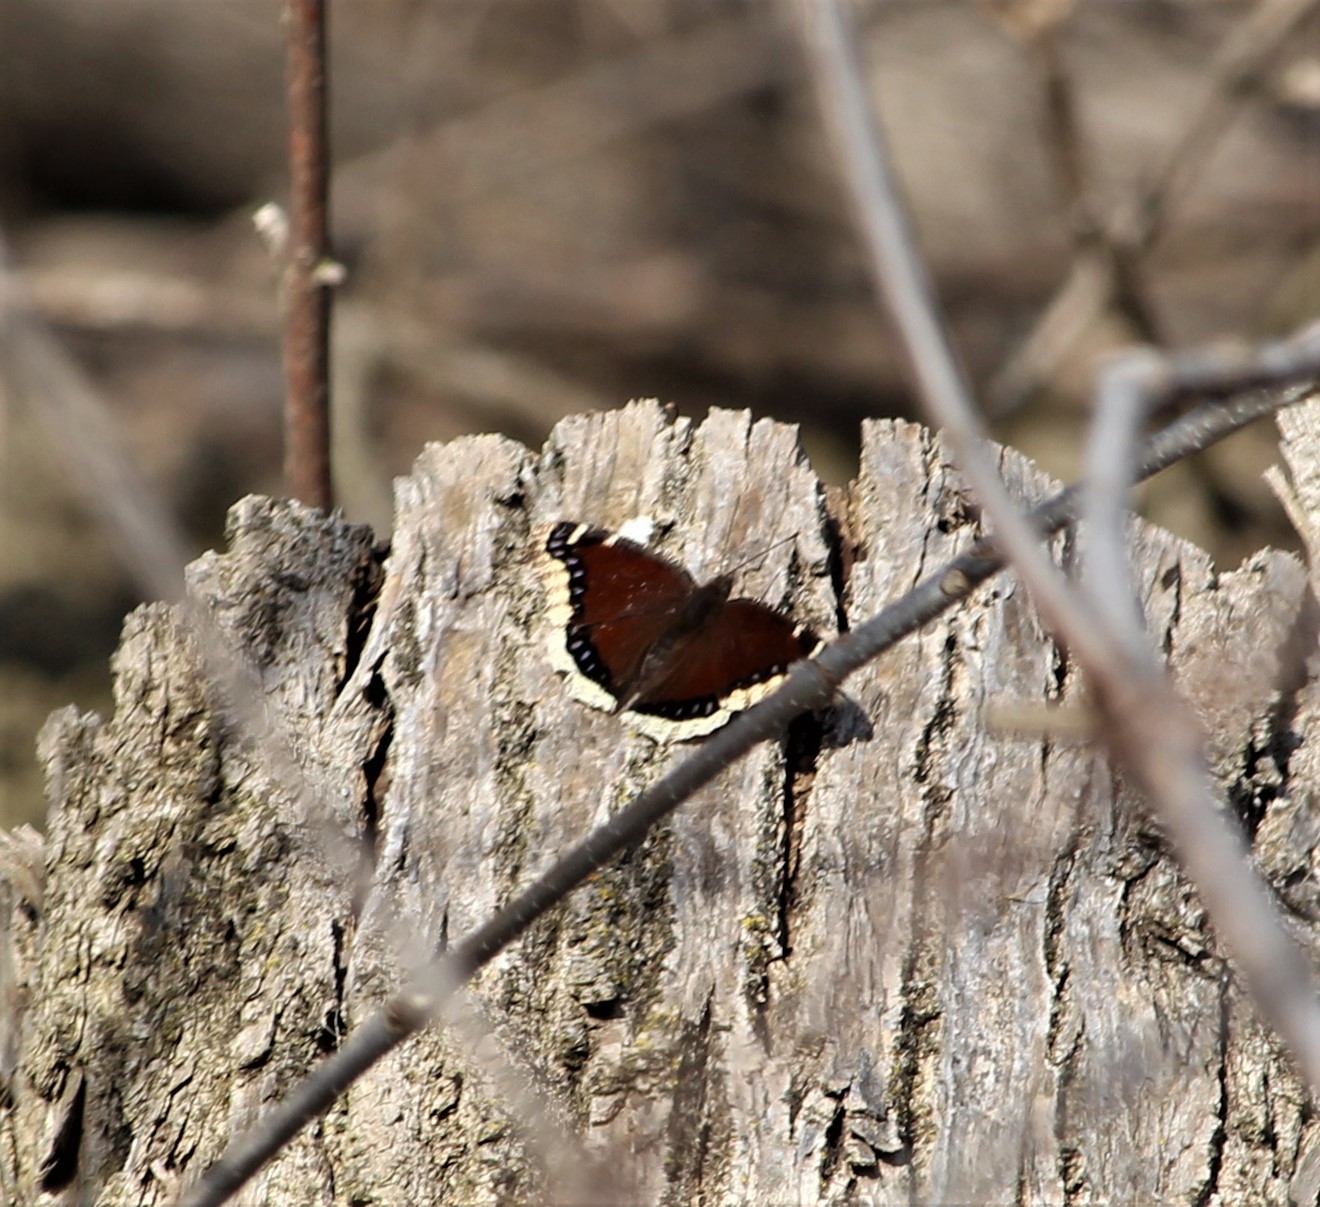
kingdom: Animalia
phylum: Arthropoda
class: Insecta
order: Lepidoptera
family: Nymphalidae
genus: Nymphalis
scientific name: Nymphalis antiopa
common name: Camberwell beauty
